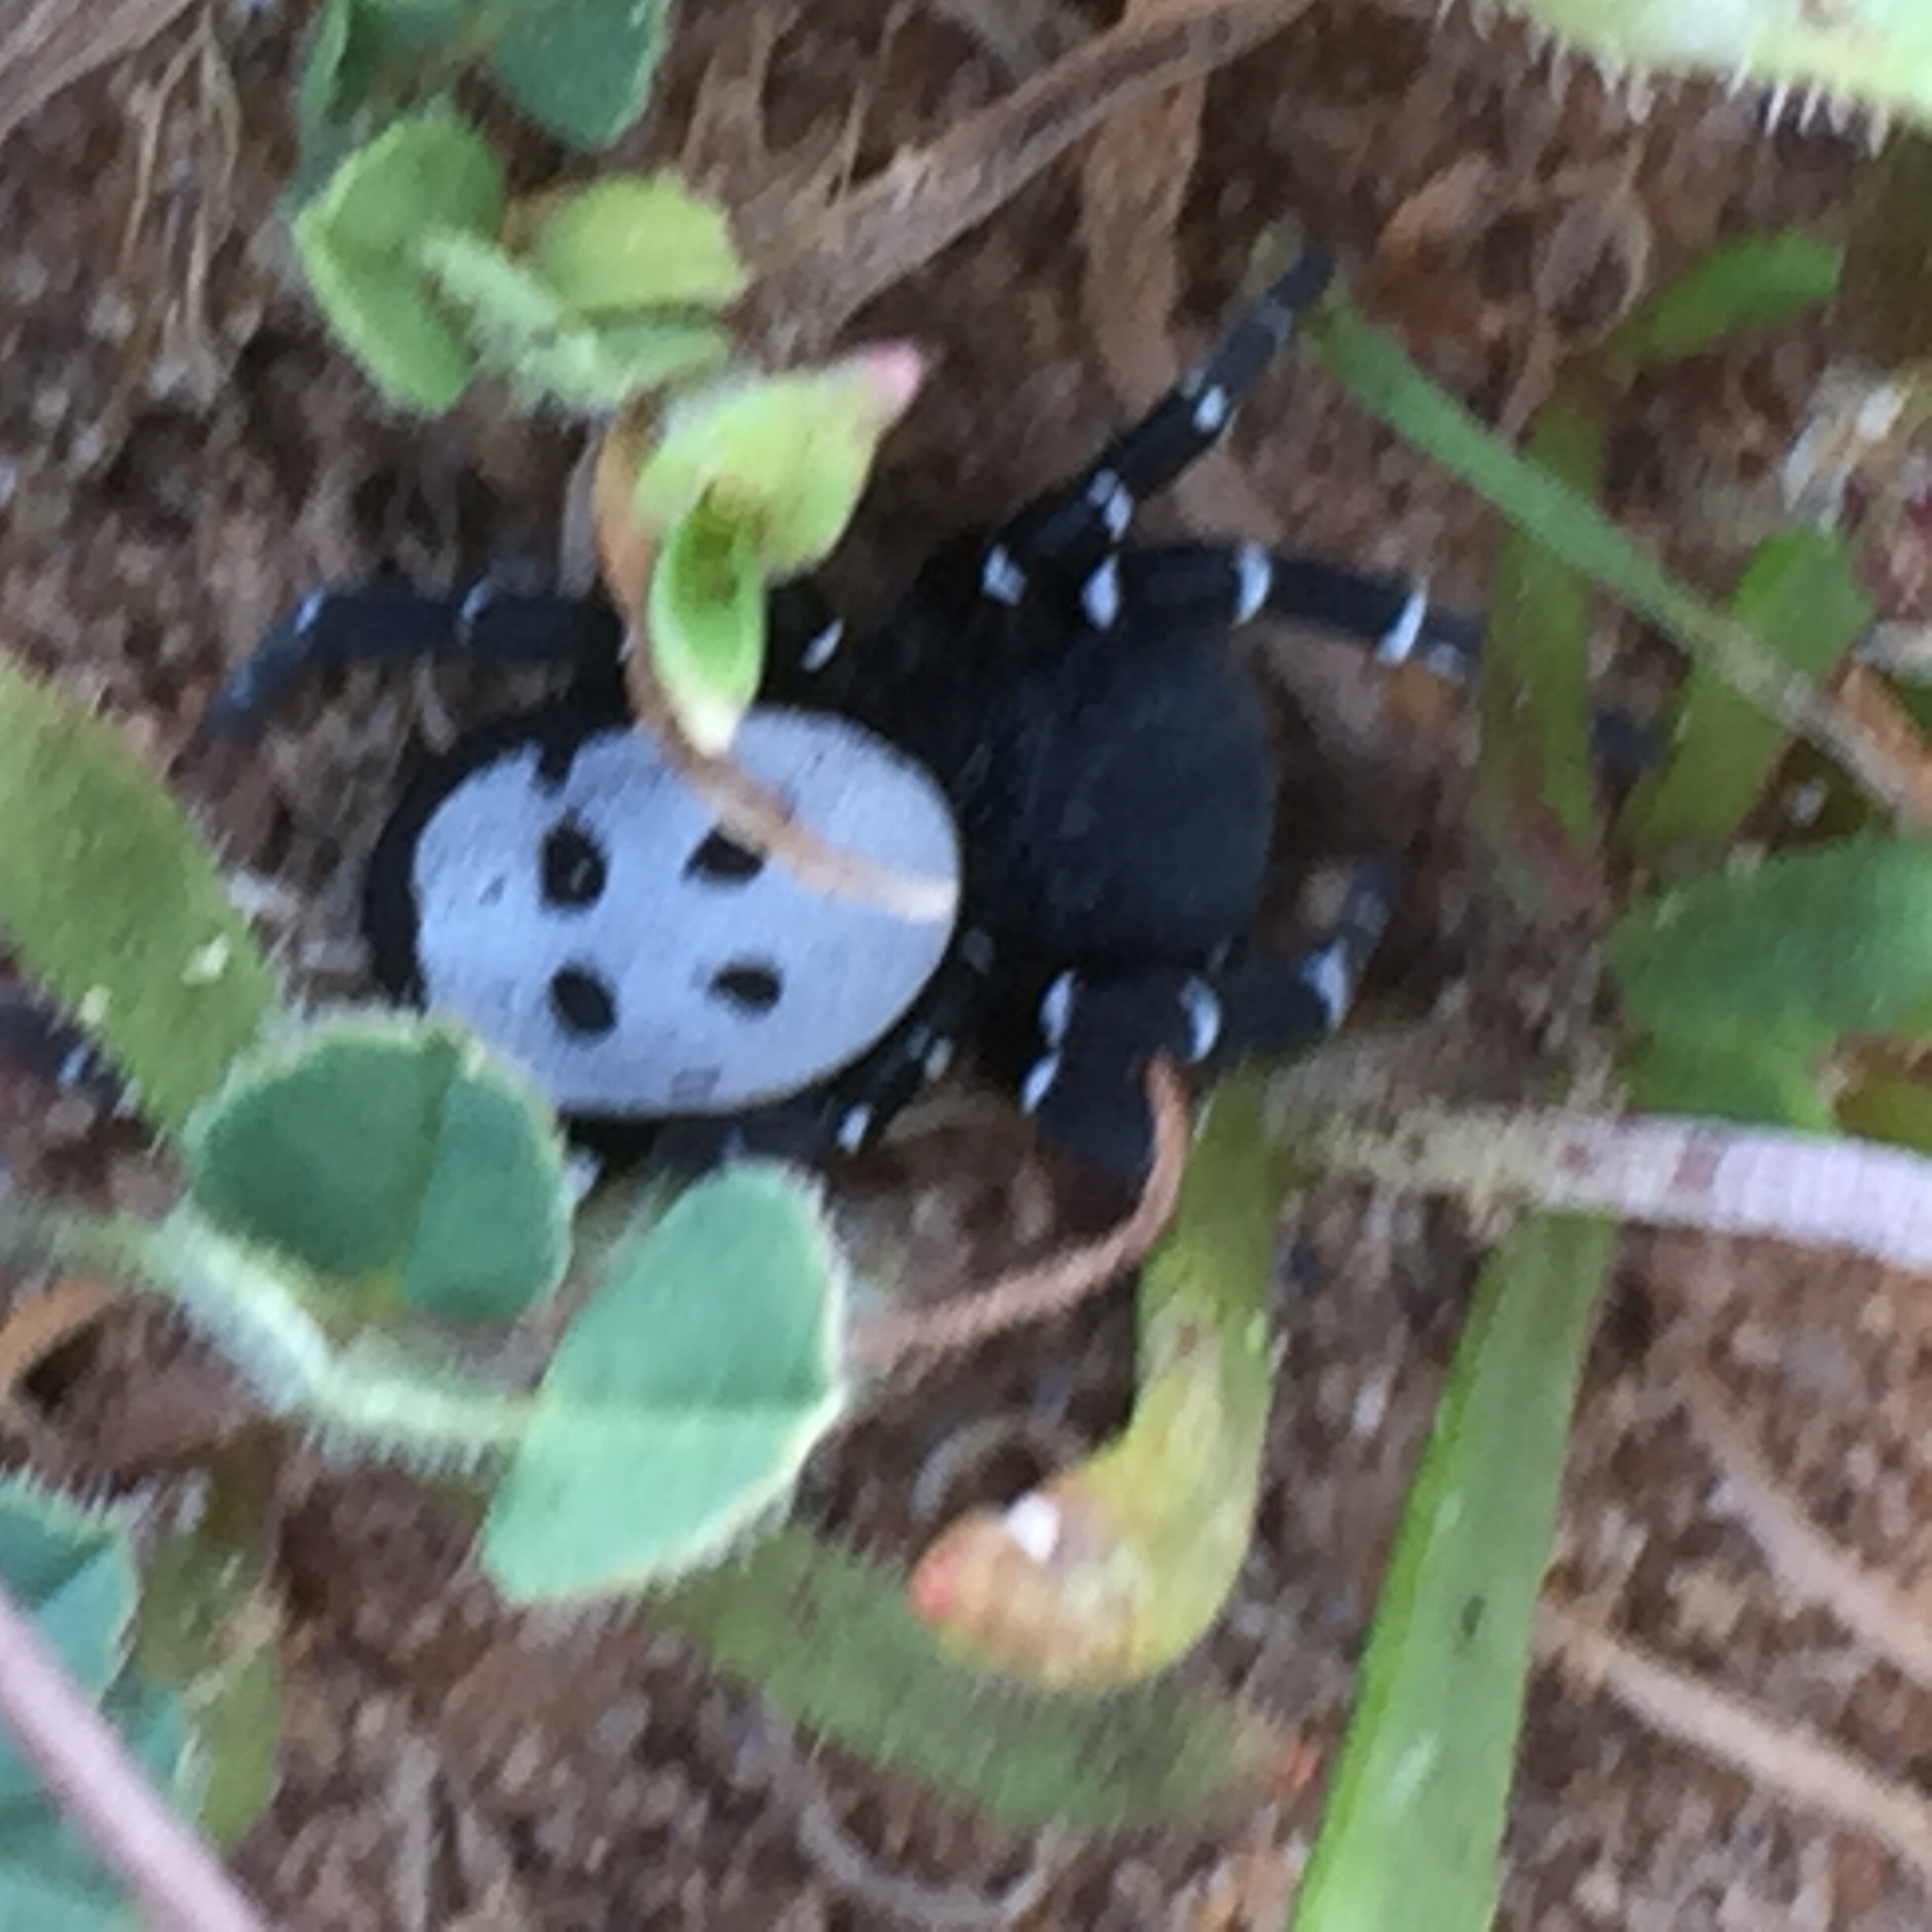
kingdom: Animalia
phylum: Arthropoda
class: Arachnida
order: Araneae
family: Eresidae
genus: Adonea
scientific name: Adonea algarvensis
